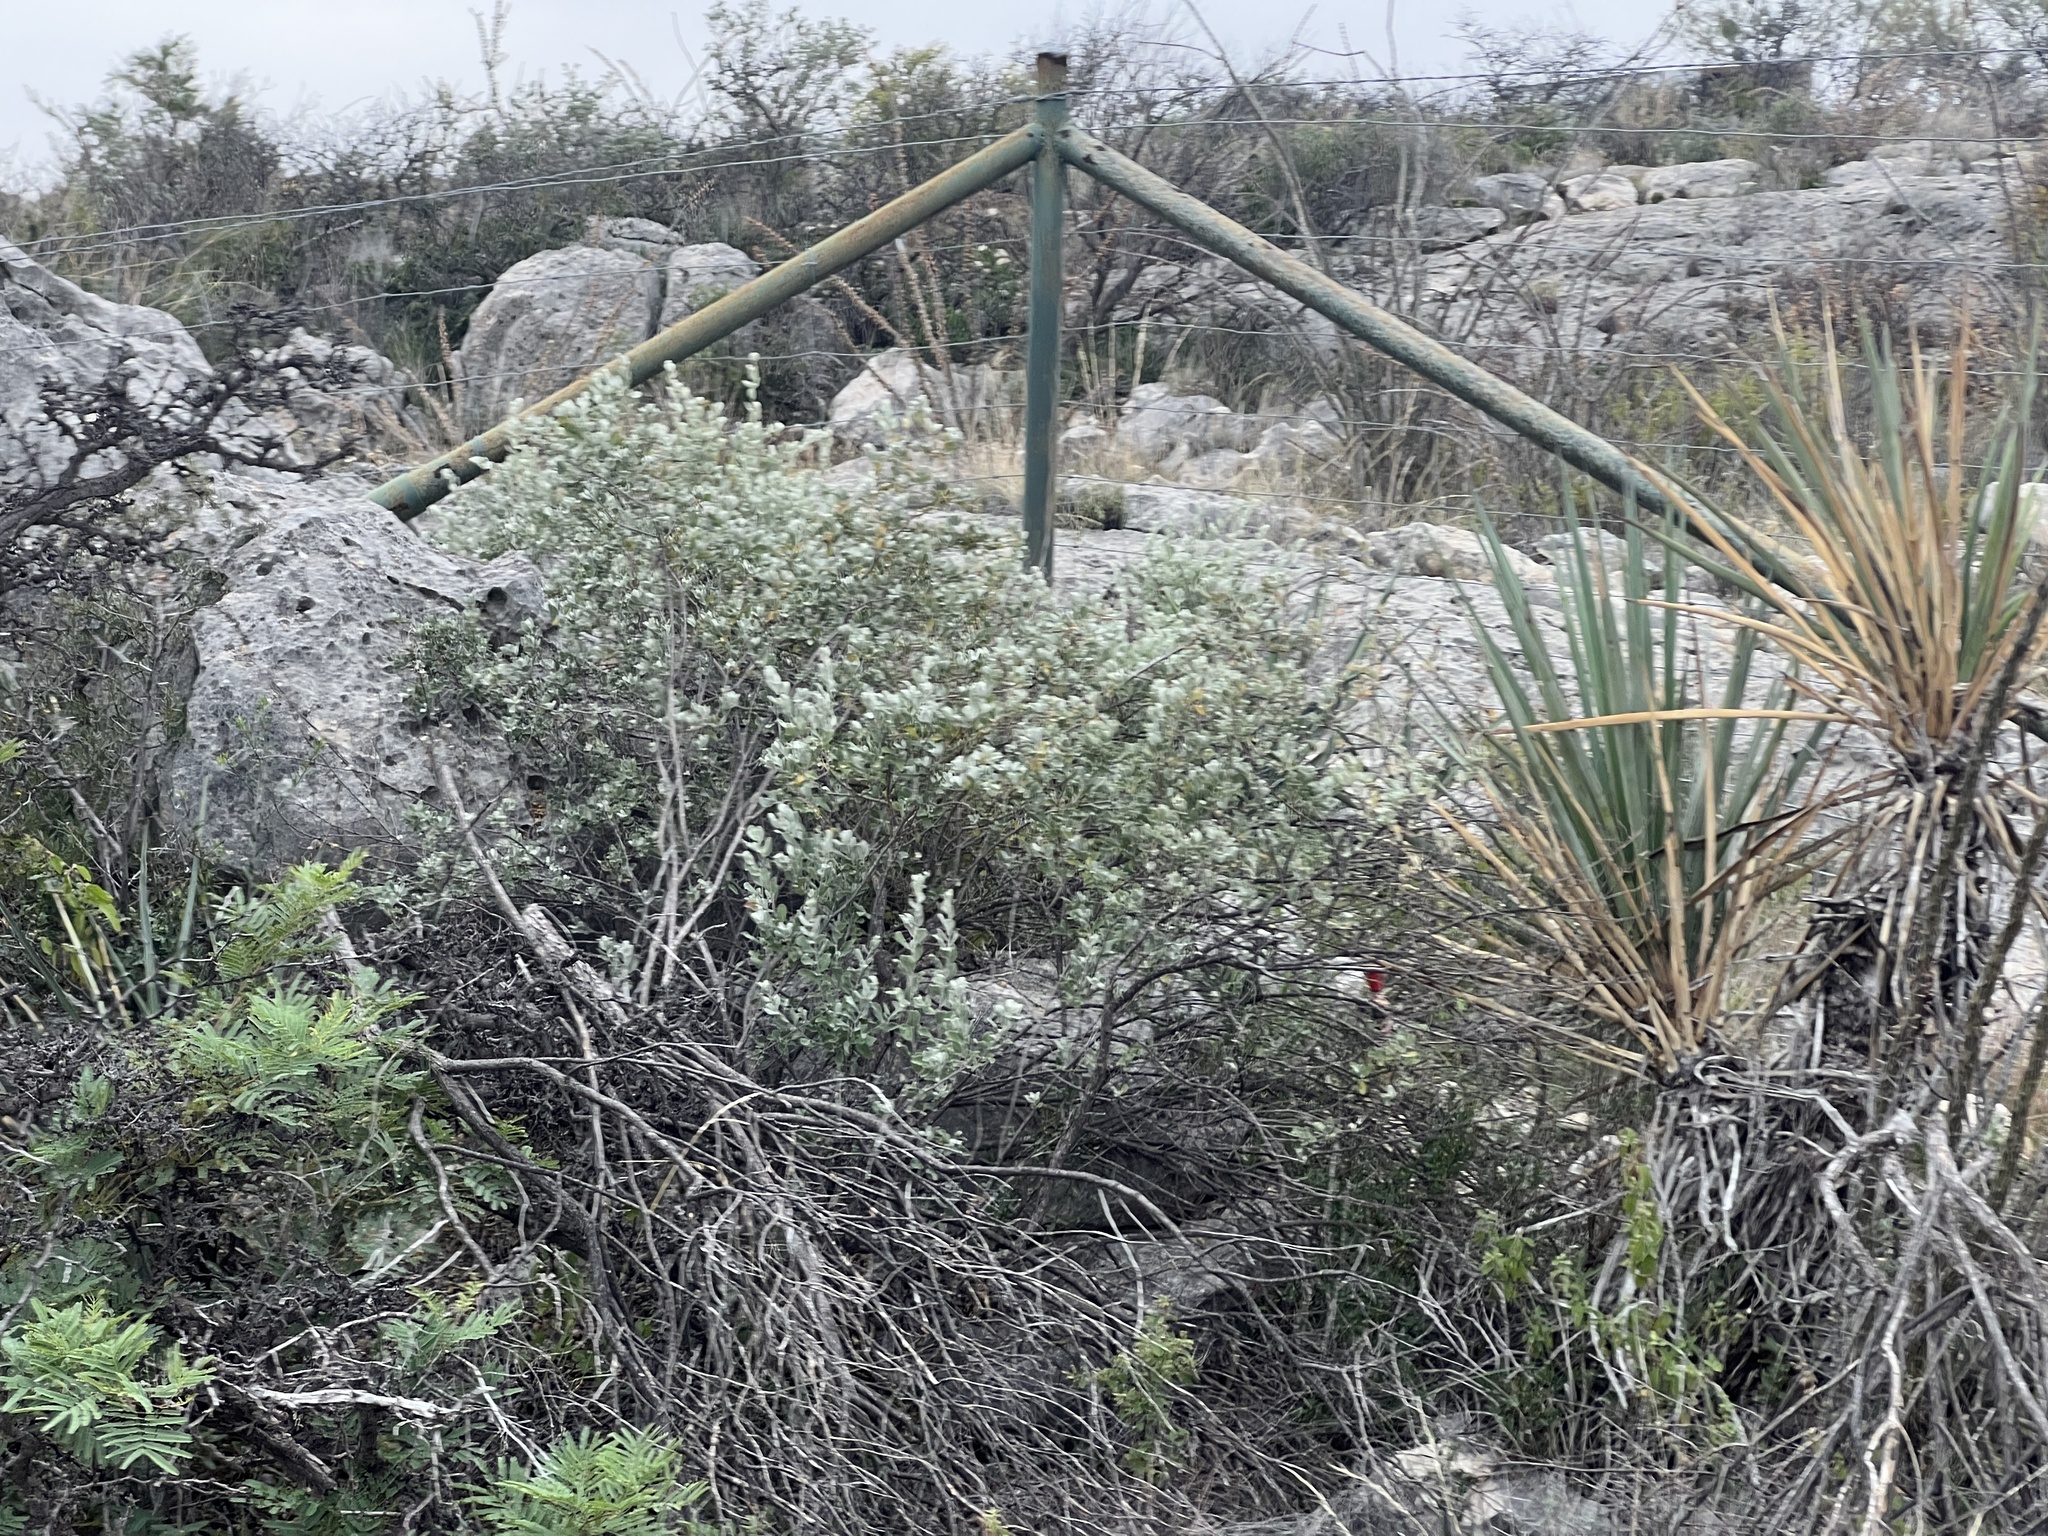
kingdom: Plantae
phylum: Tracheophyta
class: Magnoliopsida
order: Lamiales
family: Scrophulariaceae
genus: Leucophyllum
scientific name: Leucophyllum frutescens
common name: Texas silverleaf
